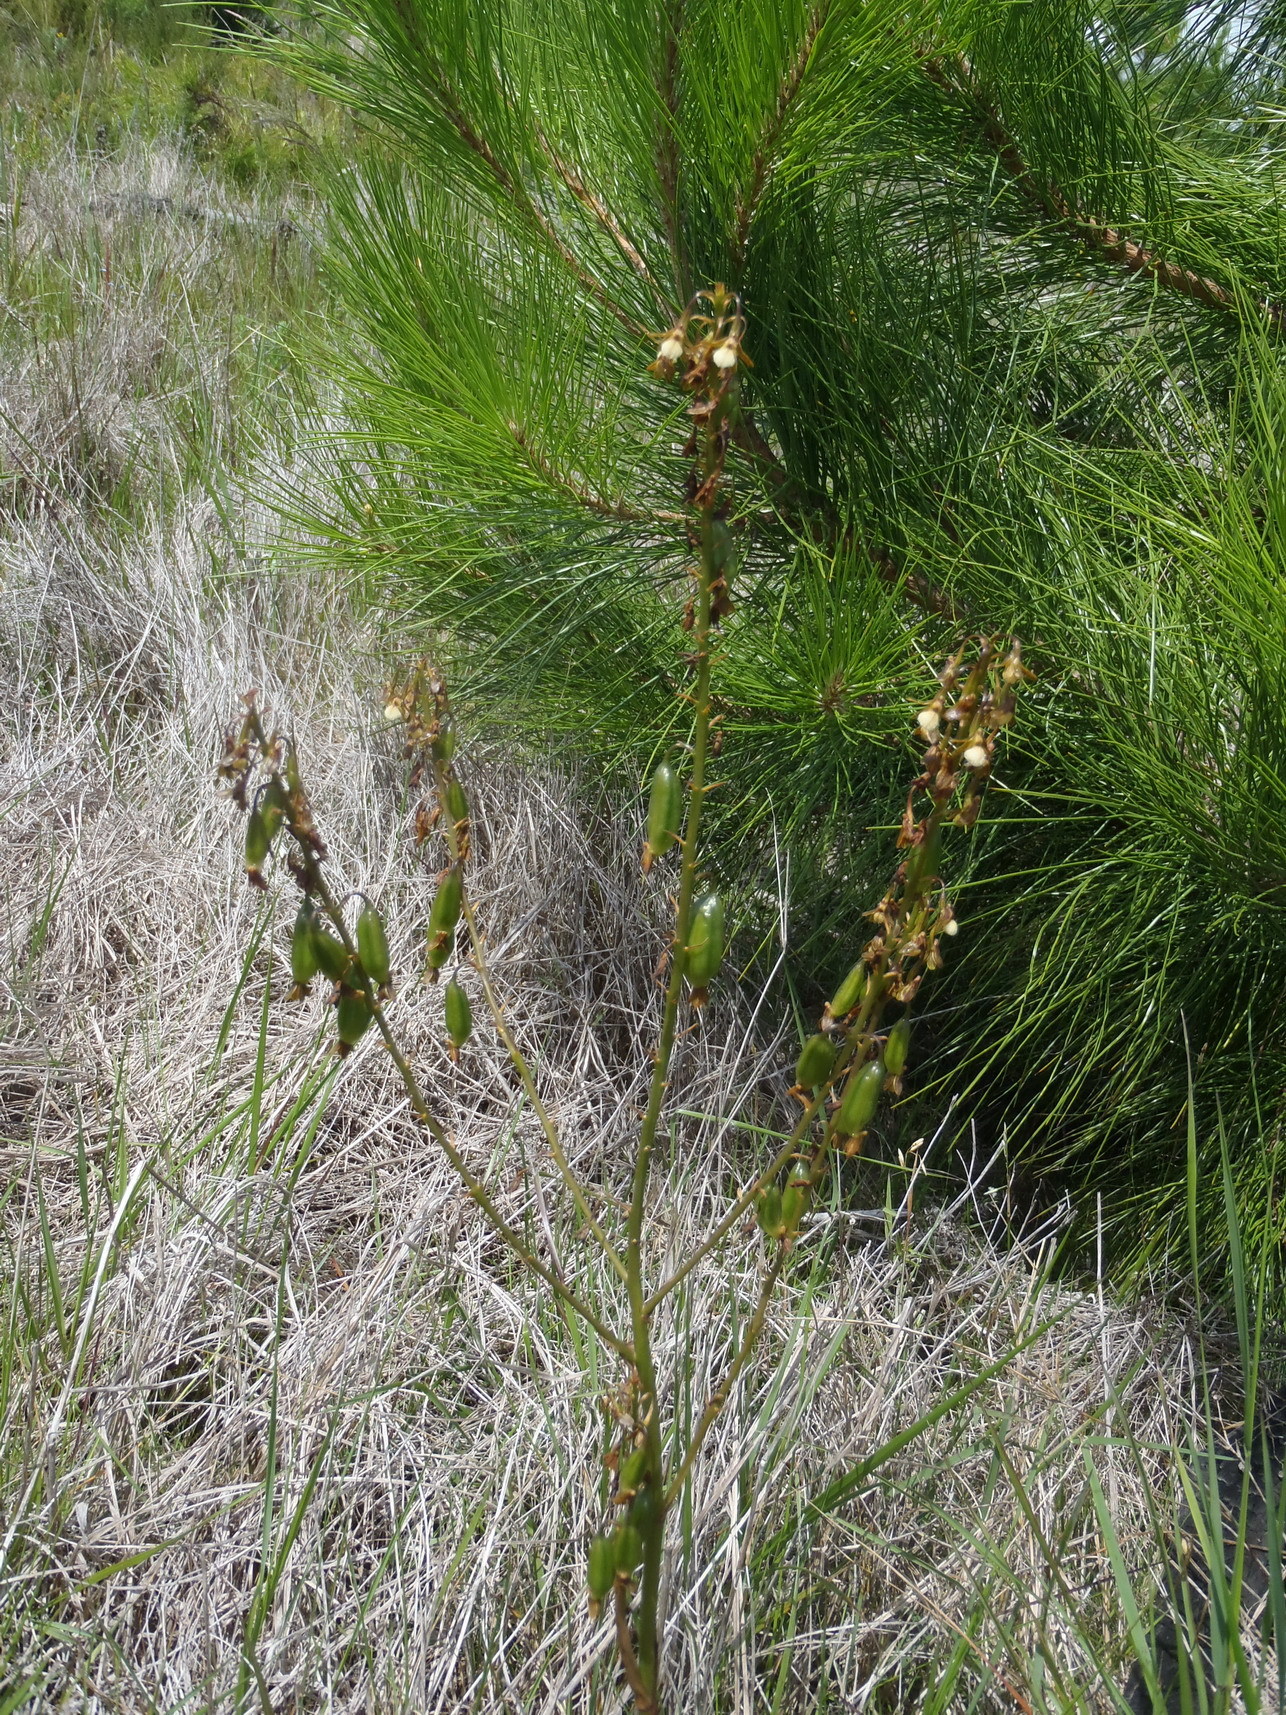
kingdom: Plantae
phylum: Tracheophyta
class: Liliopsida
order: Asparagales
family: Orchidaceae
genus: Eulophia
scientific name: Eulophia cochlearis
